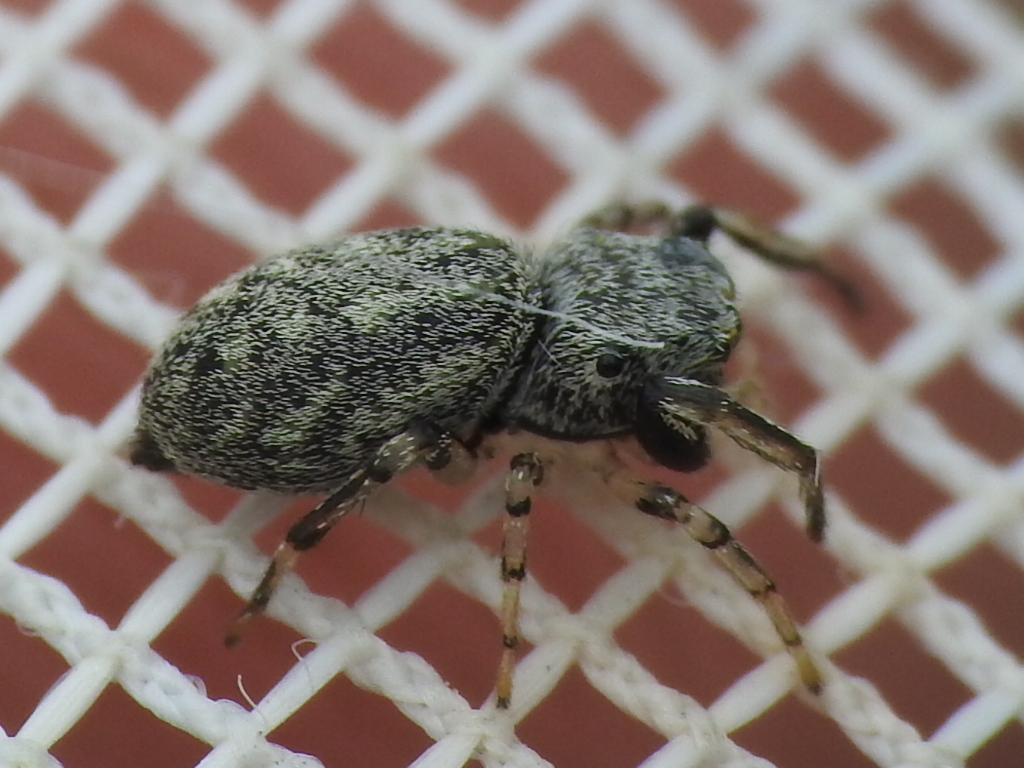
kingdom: Animalia
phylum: Arthropoda
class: Arachnida
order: Araneae
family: Salticidae
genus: Zygoballus
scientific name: Zygoballus rufipes
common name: Jumping spiders
